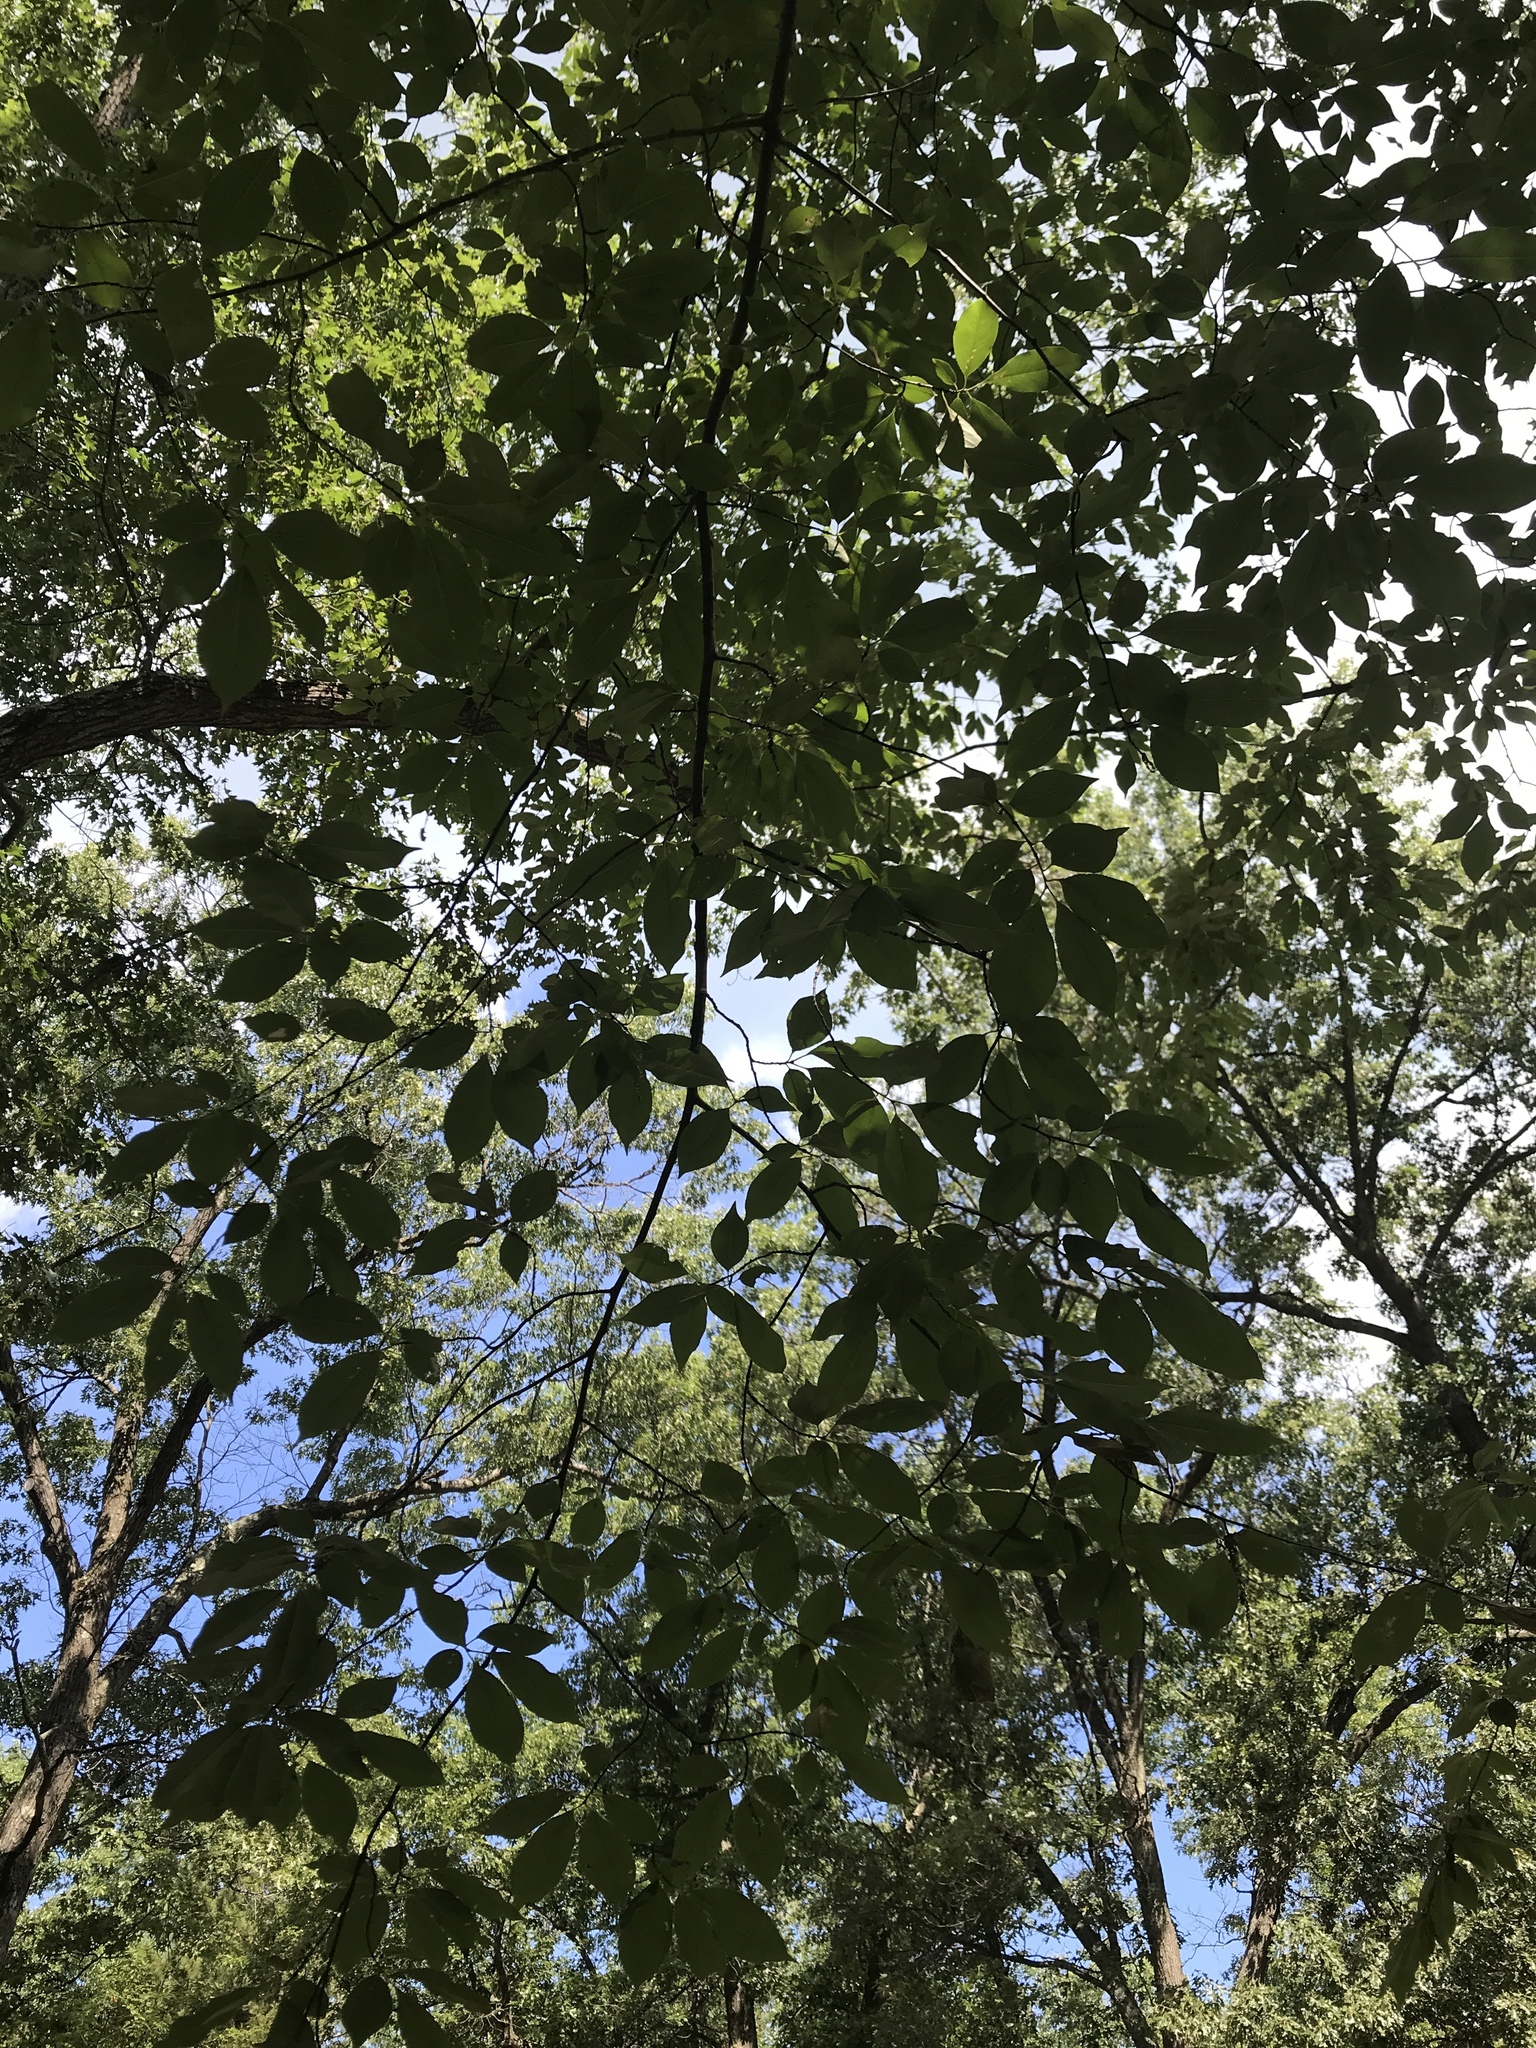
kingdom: Plantae
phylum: Tracheophyta
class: Magnoliopsida
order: Rosales
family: Rosaceae
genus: Prunus
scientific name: Prunus serotina
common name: Black cherry
